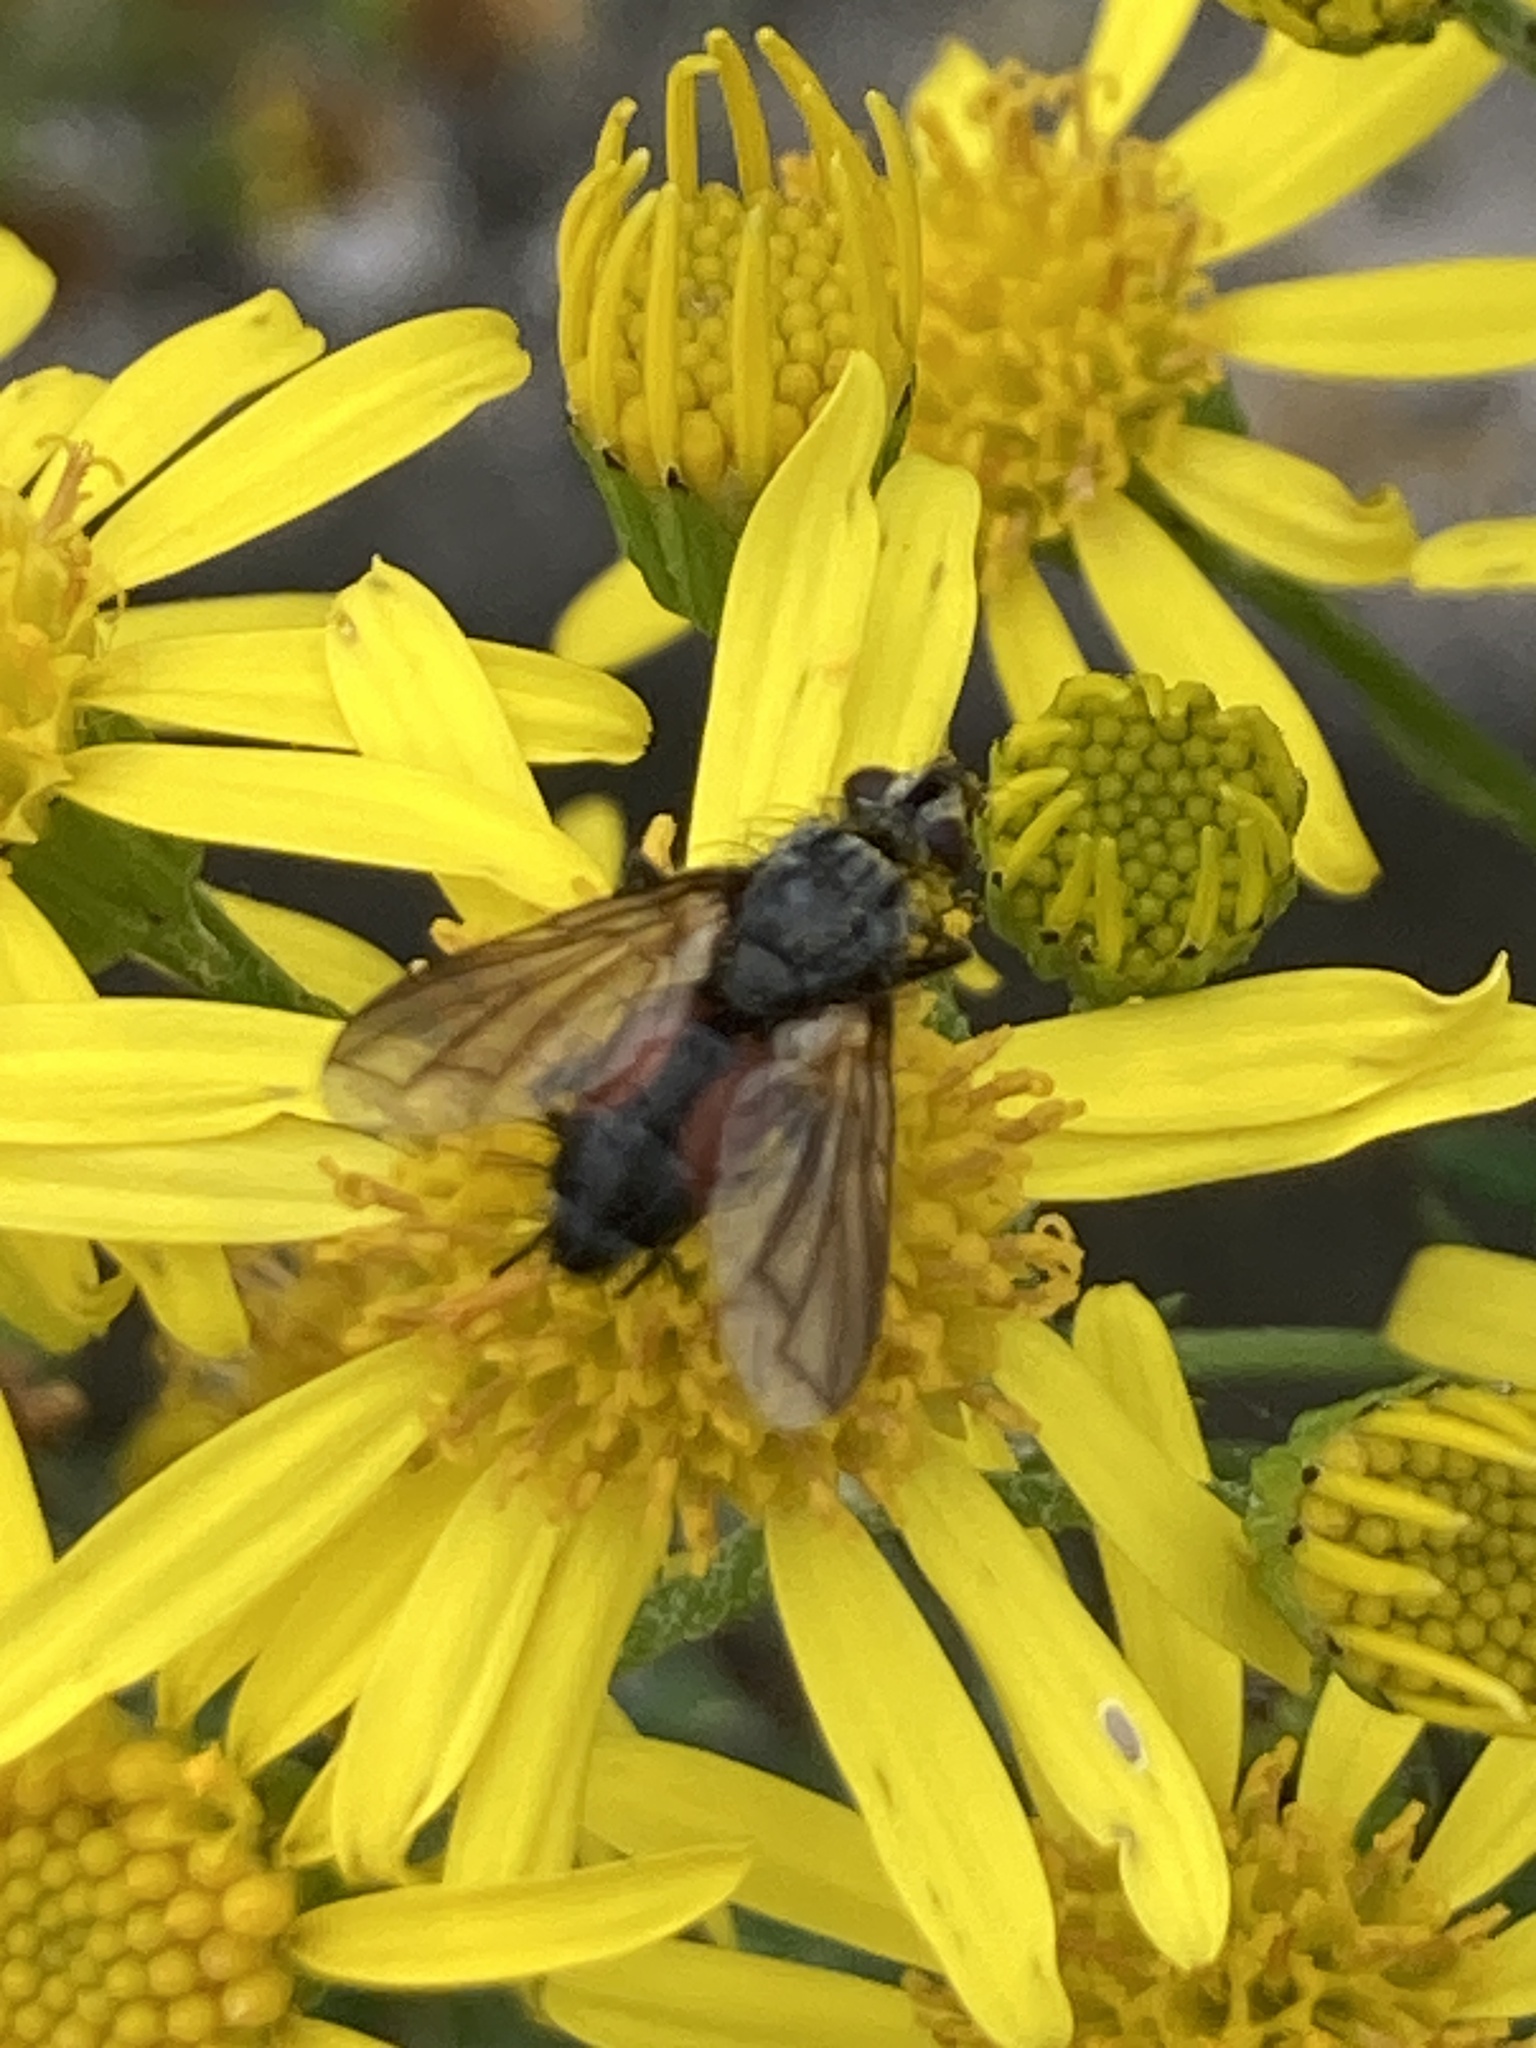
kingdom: Animalia
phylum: Arthropoda
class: Insecta
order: Diptera
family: Tachinidae
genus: Eriothrix
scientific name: Eriothrix rufomaculatus
